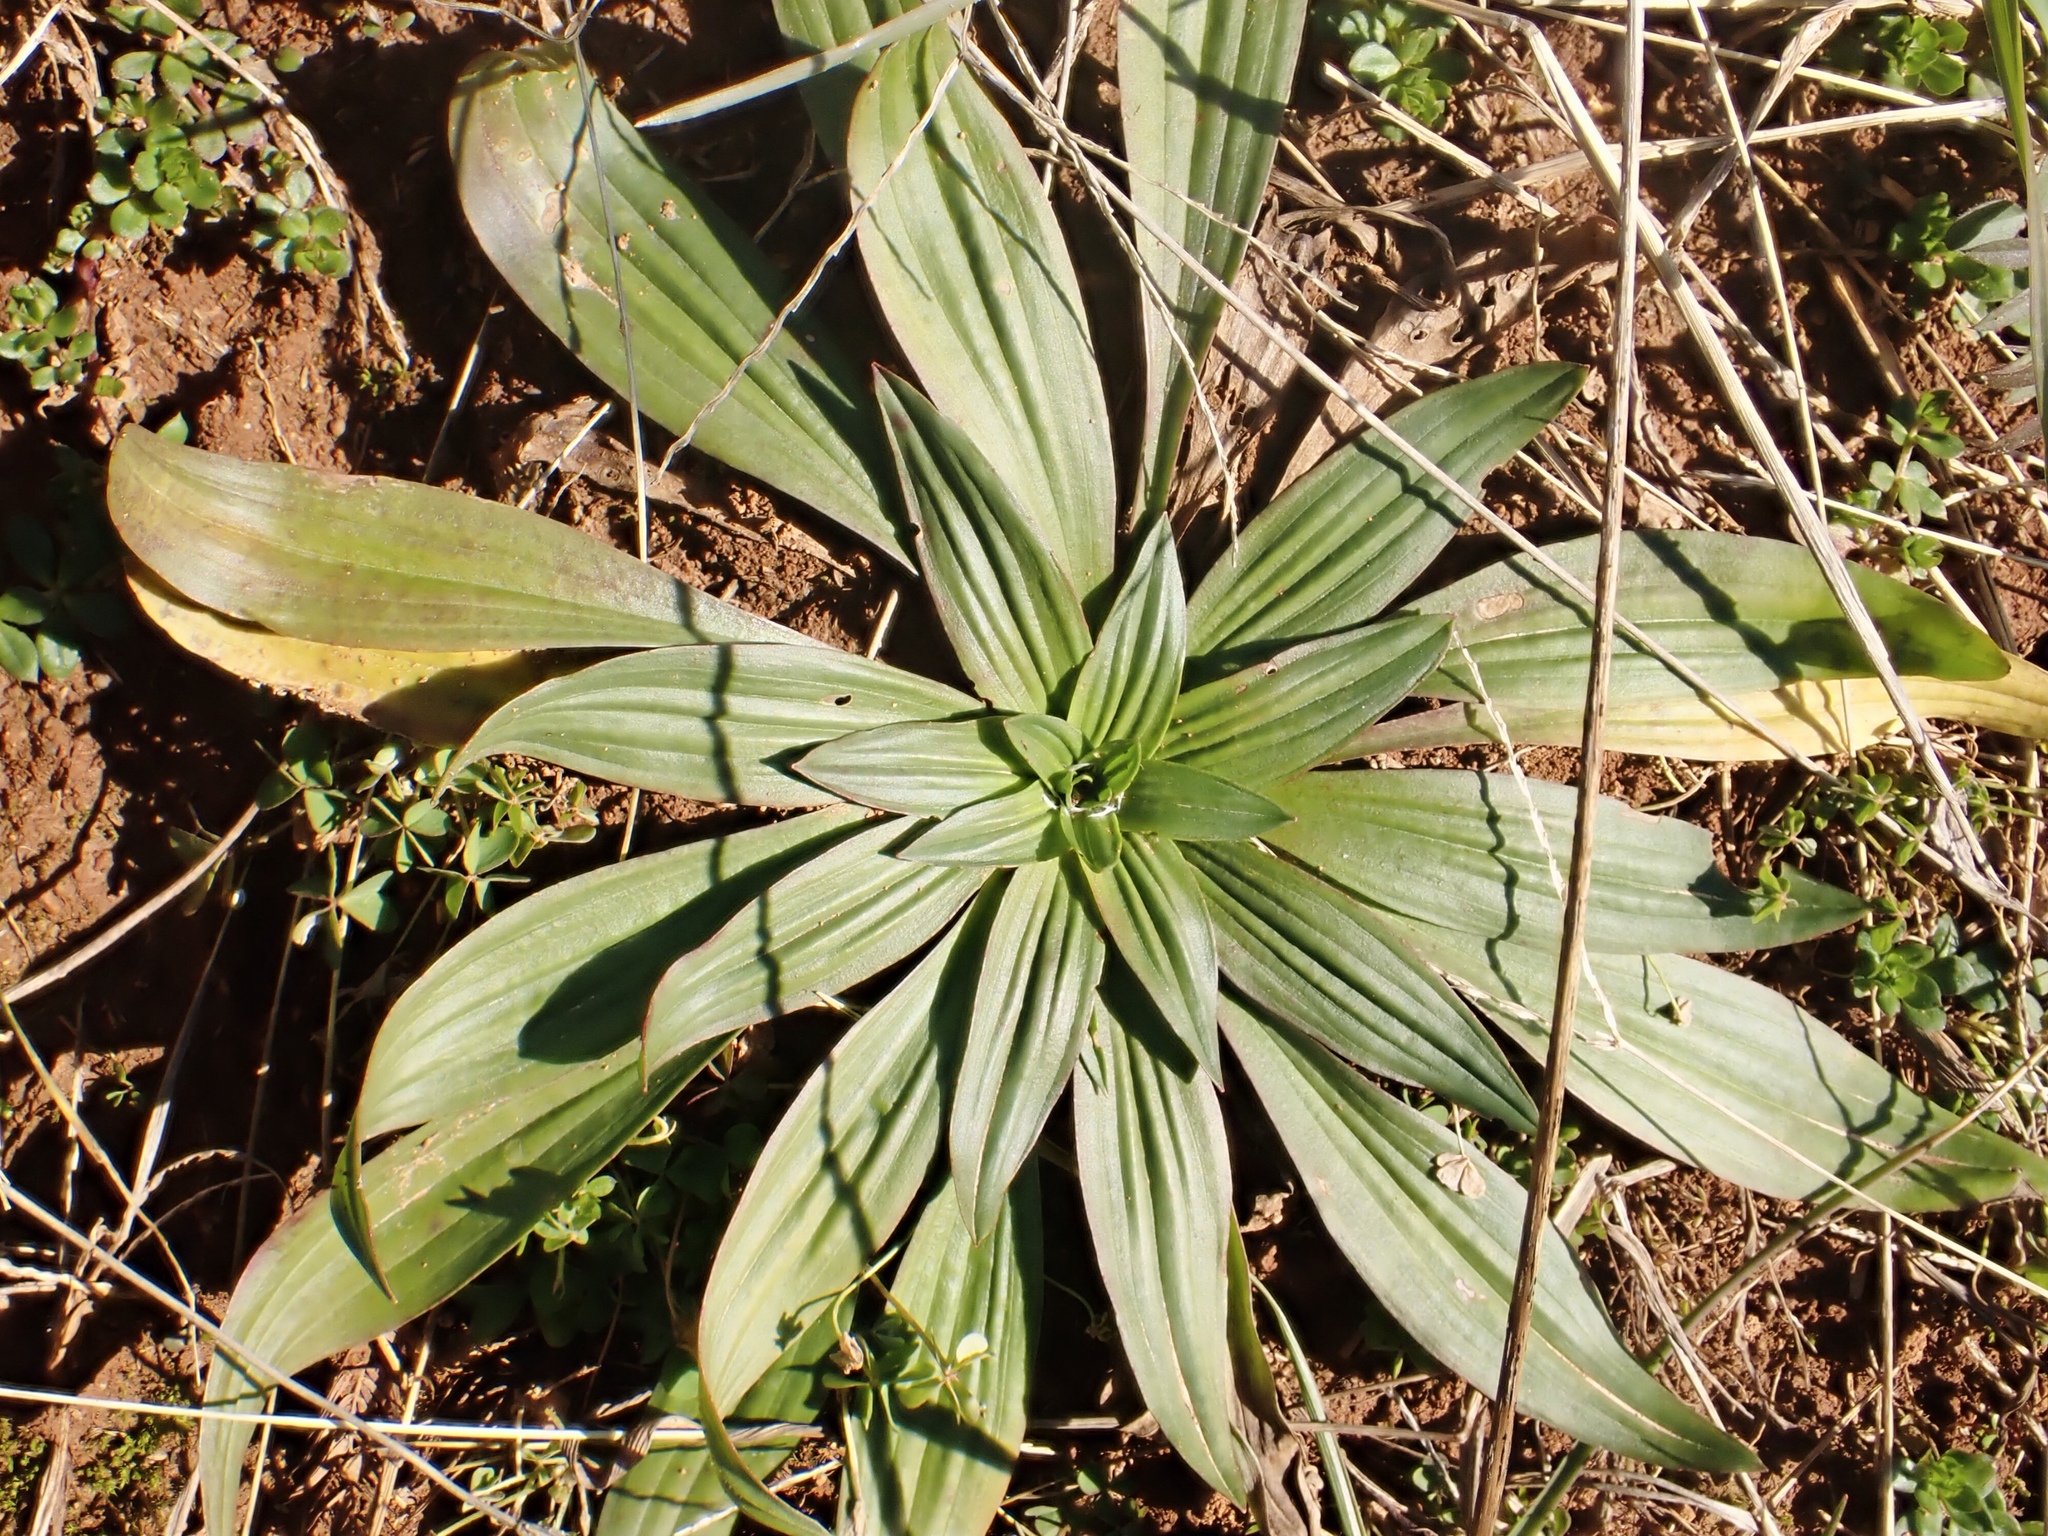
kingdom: Plantae
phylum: Tracheophyta
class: Magnoliopsida
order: Lamiales
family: Plantaginaceae
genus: Plantago
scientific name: Plantago lanceolata
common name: Ribwort plantain
